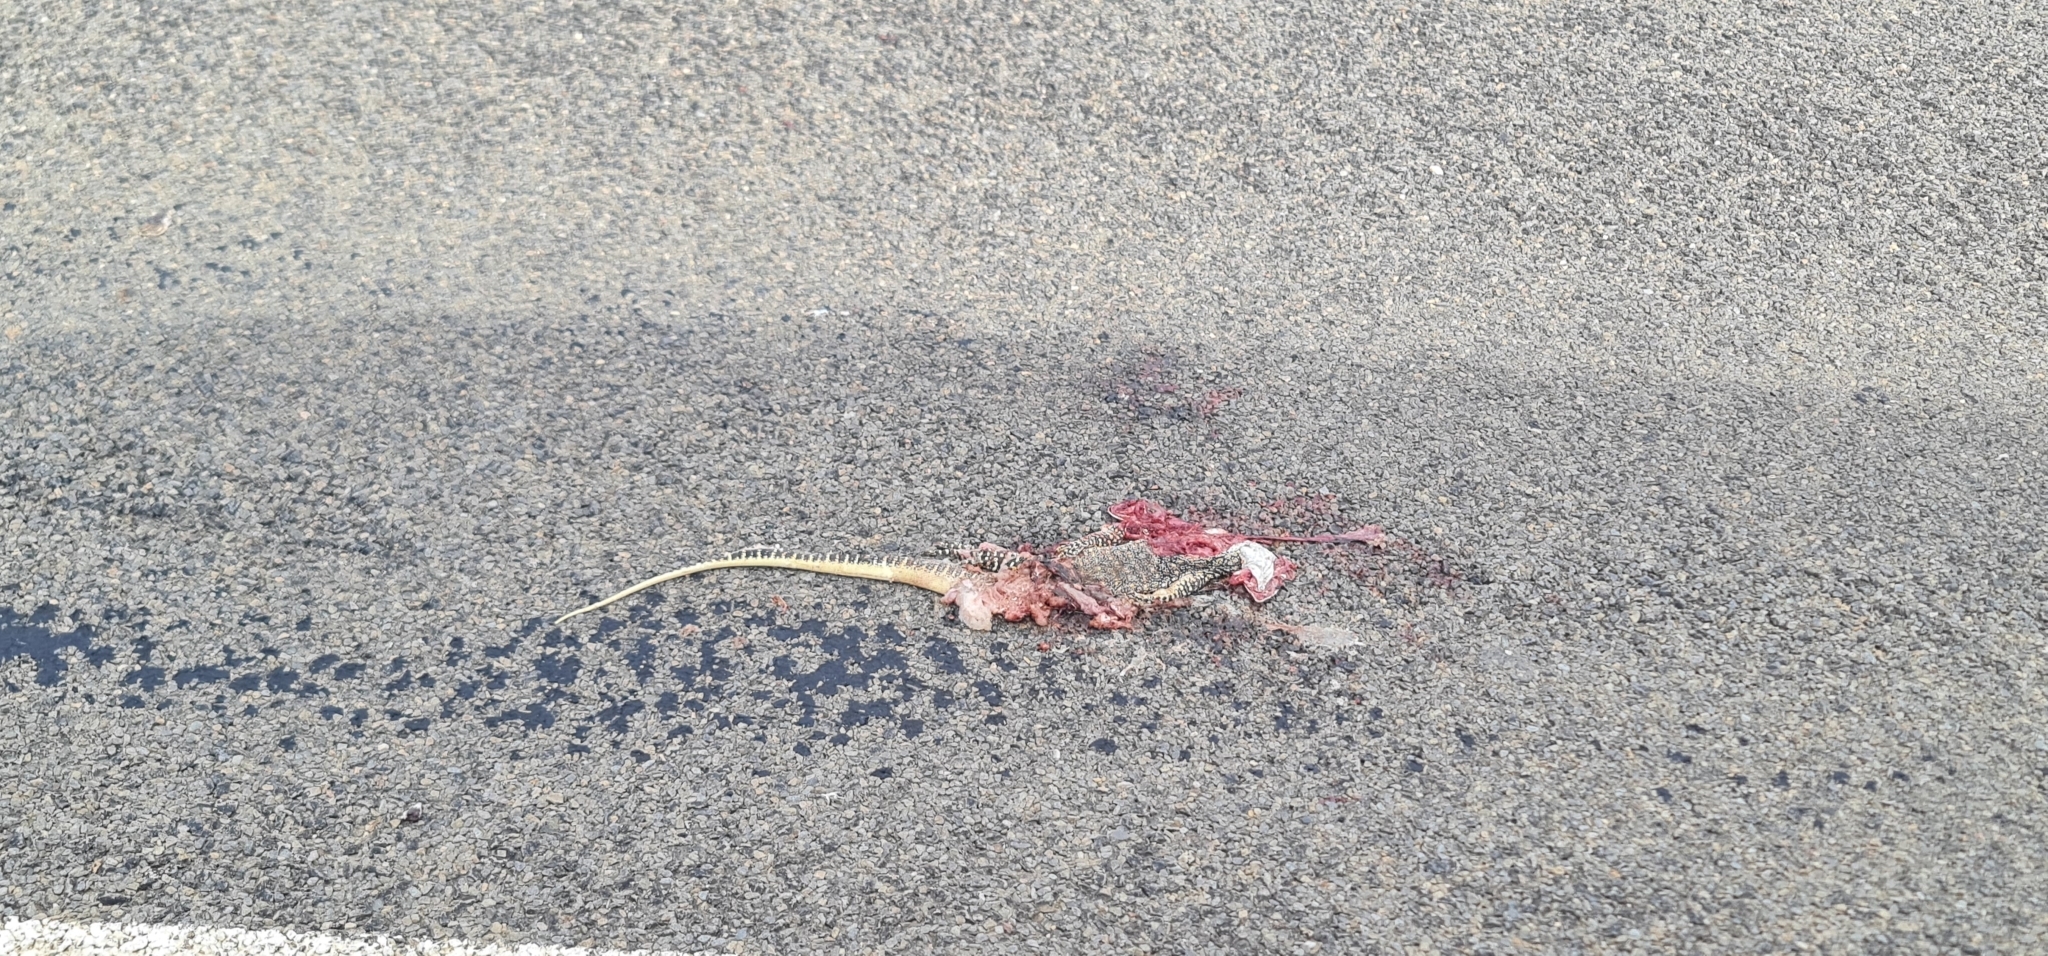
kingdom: Animalia
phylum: Chordata
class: Squamata
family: Varanidae
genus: Varanus
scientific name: Varanus gouldii
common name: Gould's goanna
